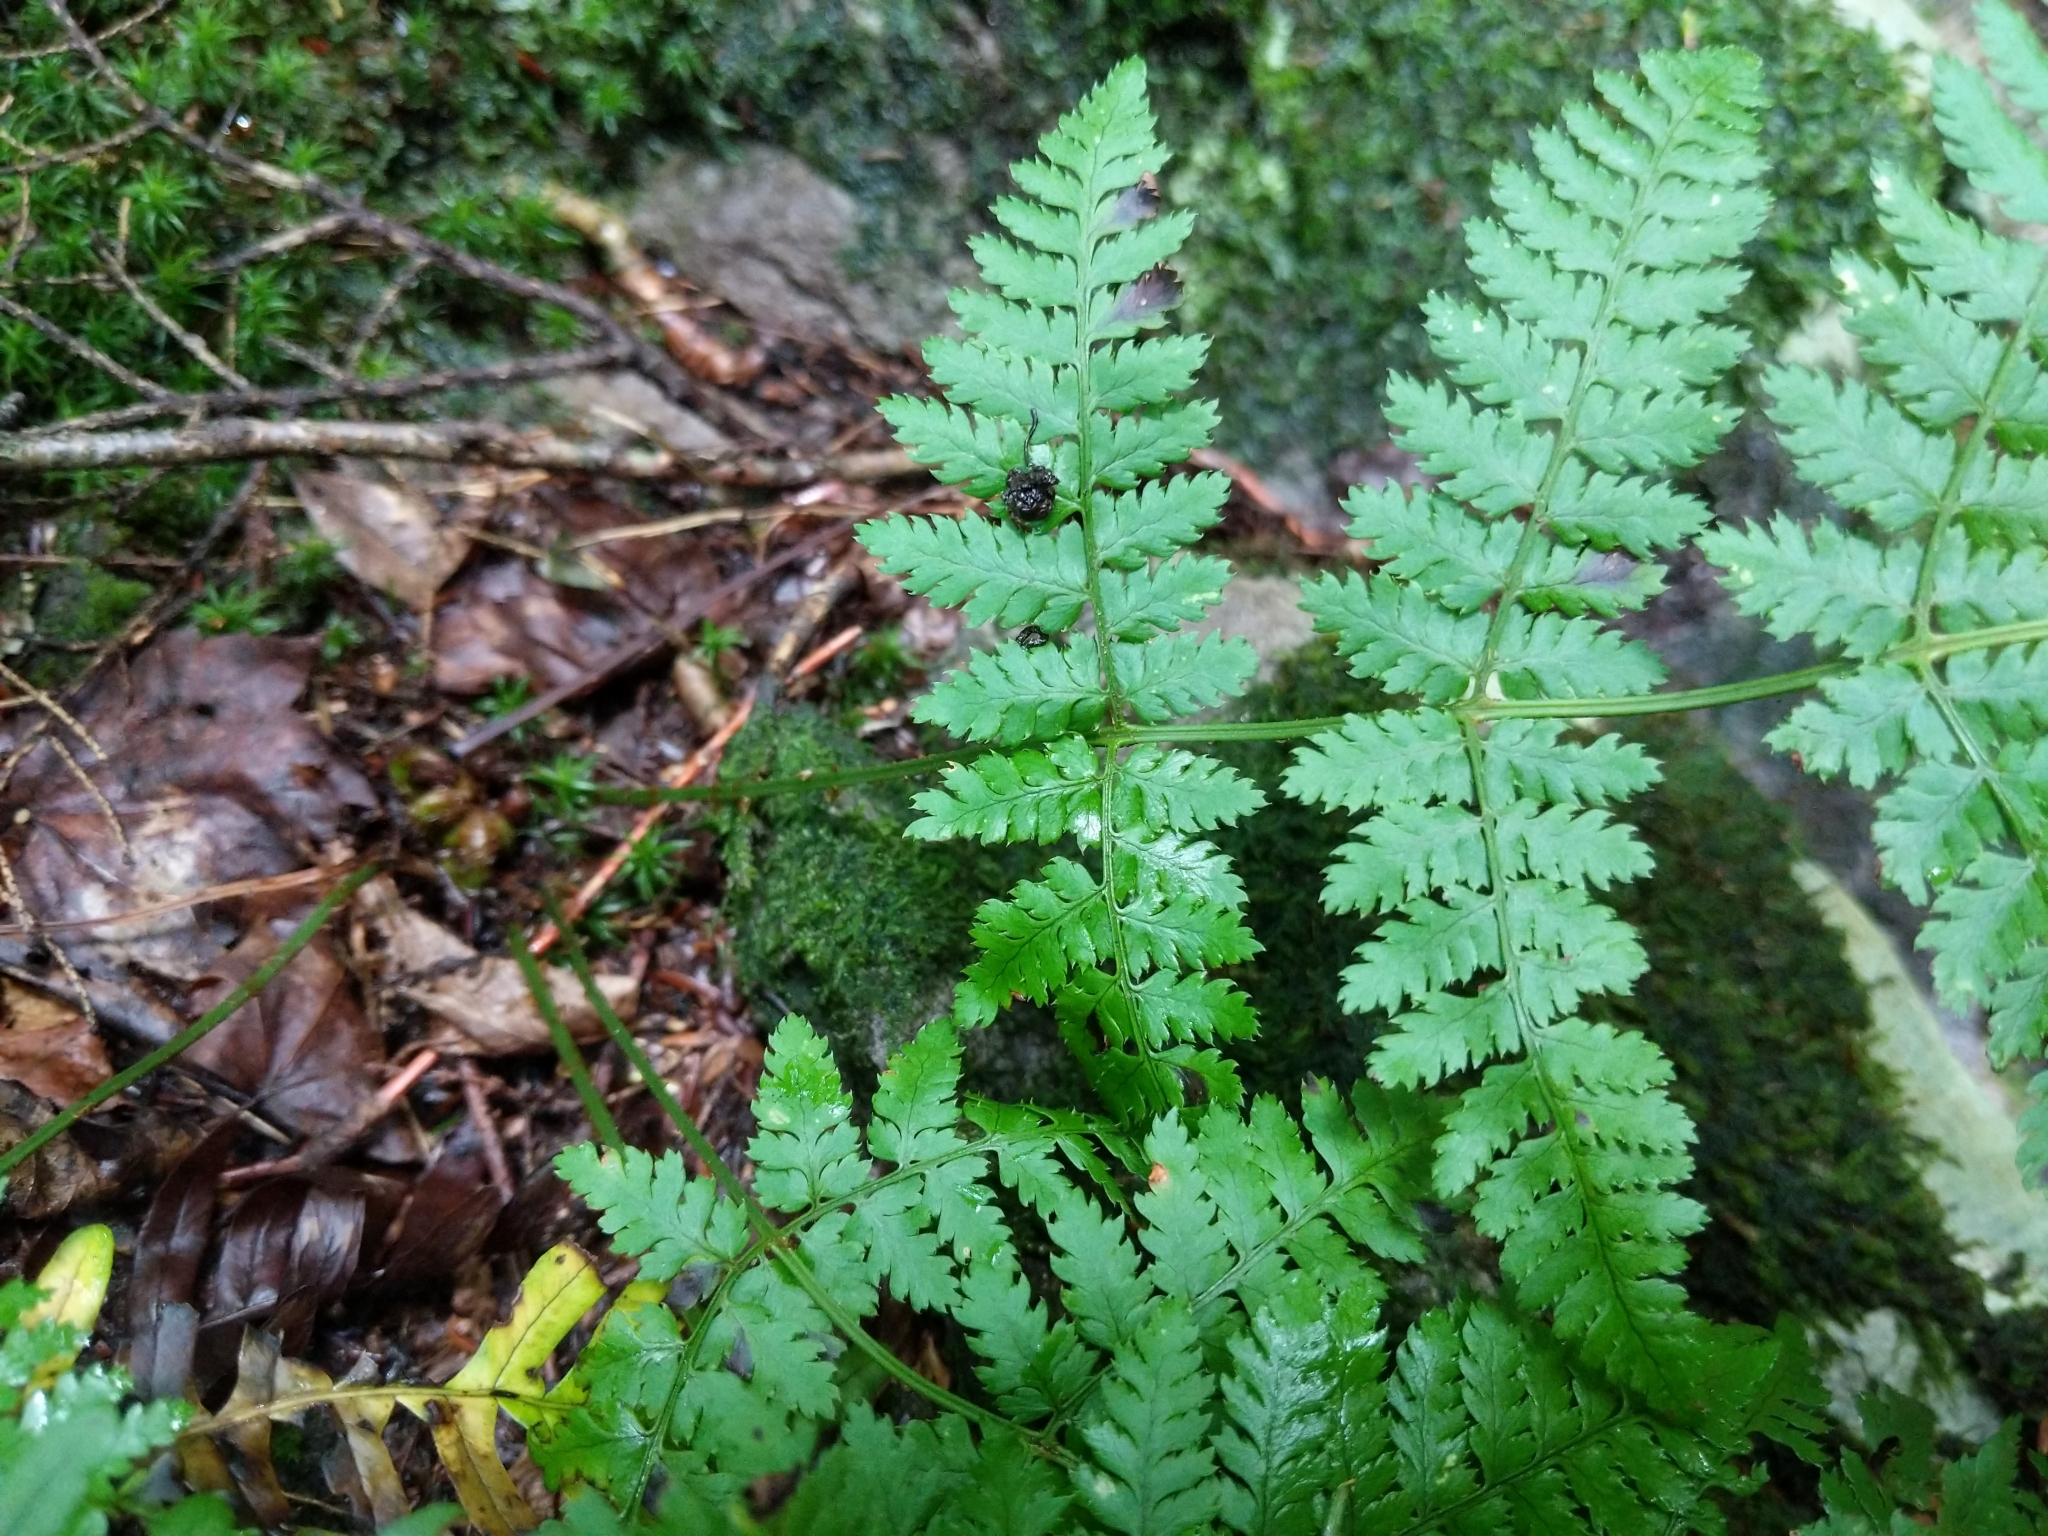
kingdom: Plantae
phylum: Tracheophyta
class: Polypodiopsida
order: Polypodiales
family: Dryopteridaceae
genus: Dryopteris
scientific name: Dryopteris intermedia
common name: Evergreen wood fern
